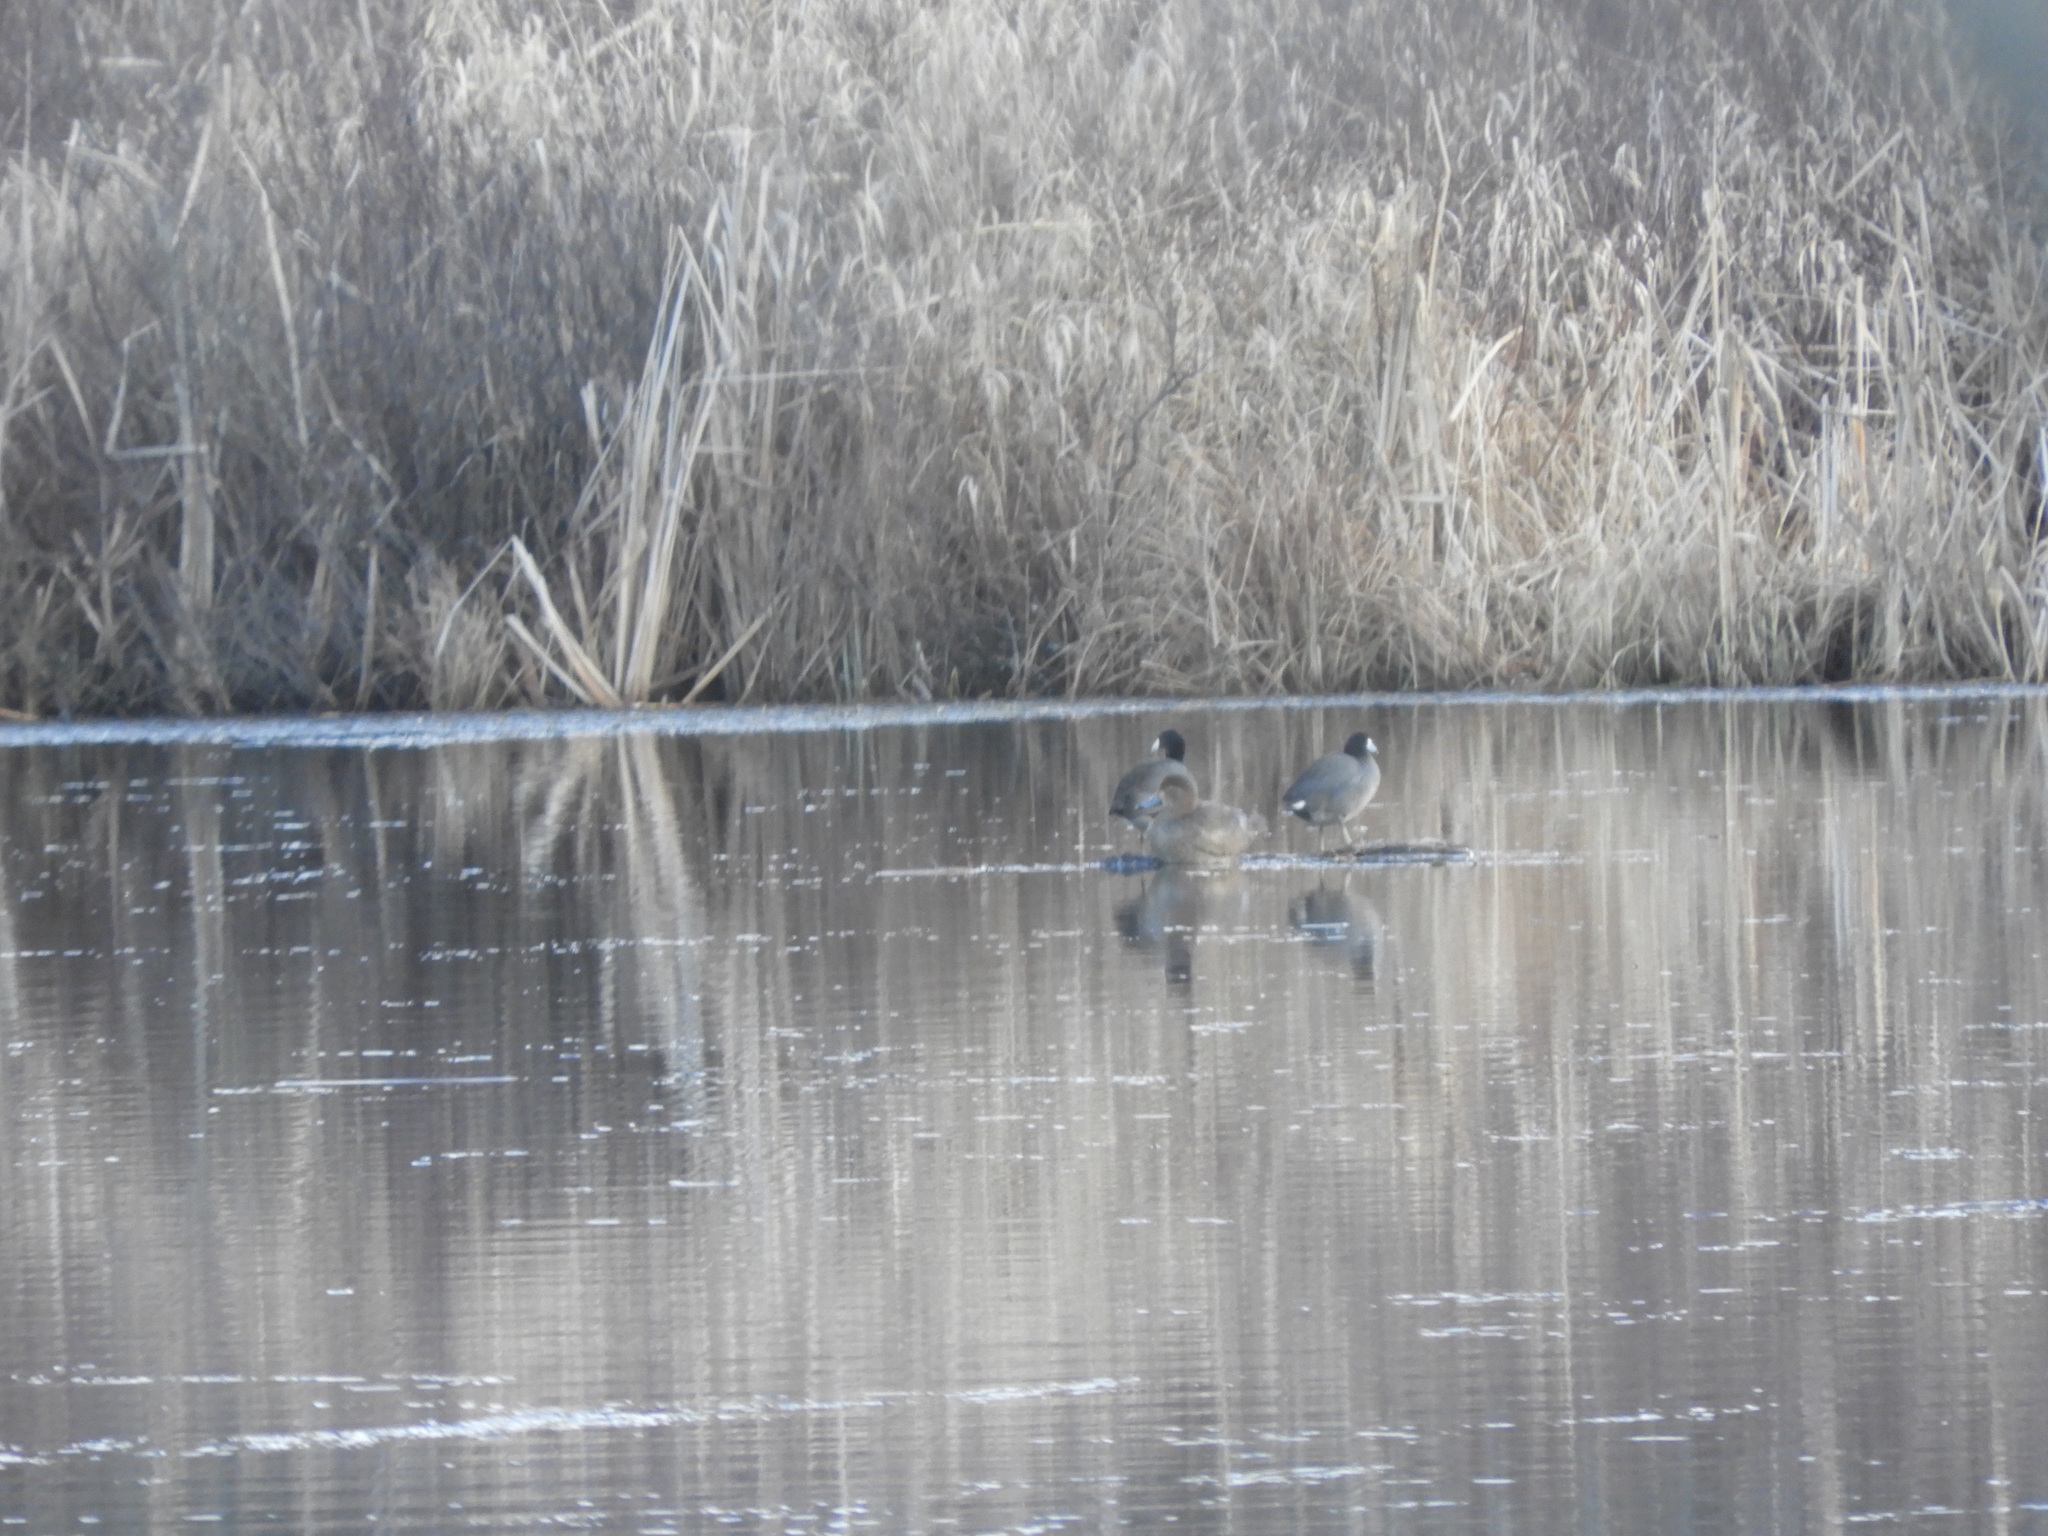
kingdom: Animalia
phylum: Chordata
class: Aves
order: Anseriformes
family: Anatidae
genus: Aythya
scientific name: Aythya americana
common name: Redhead
